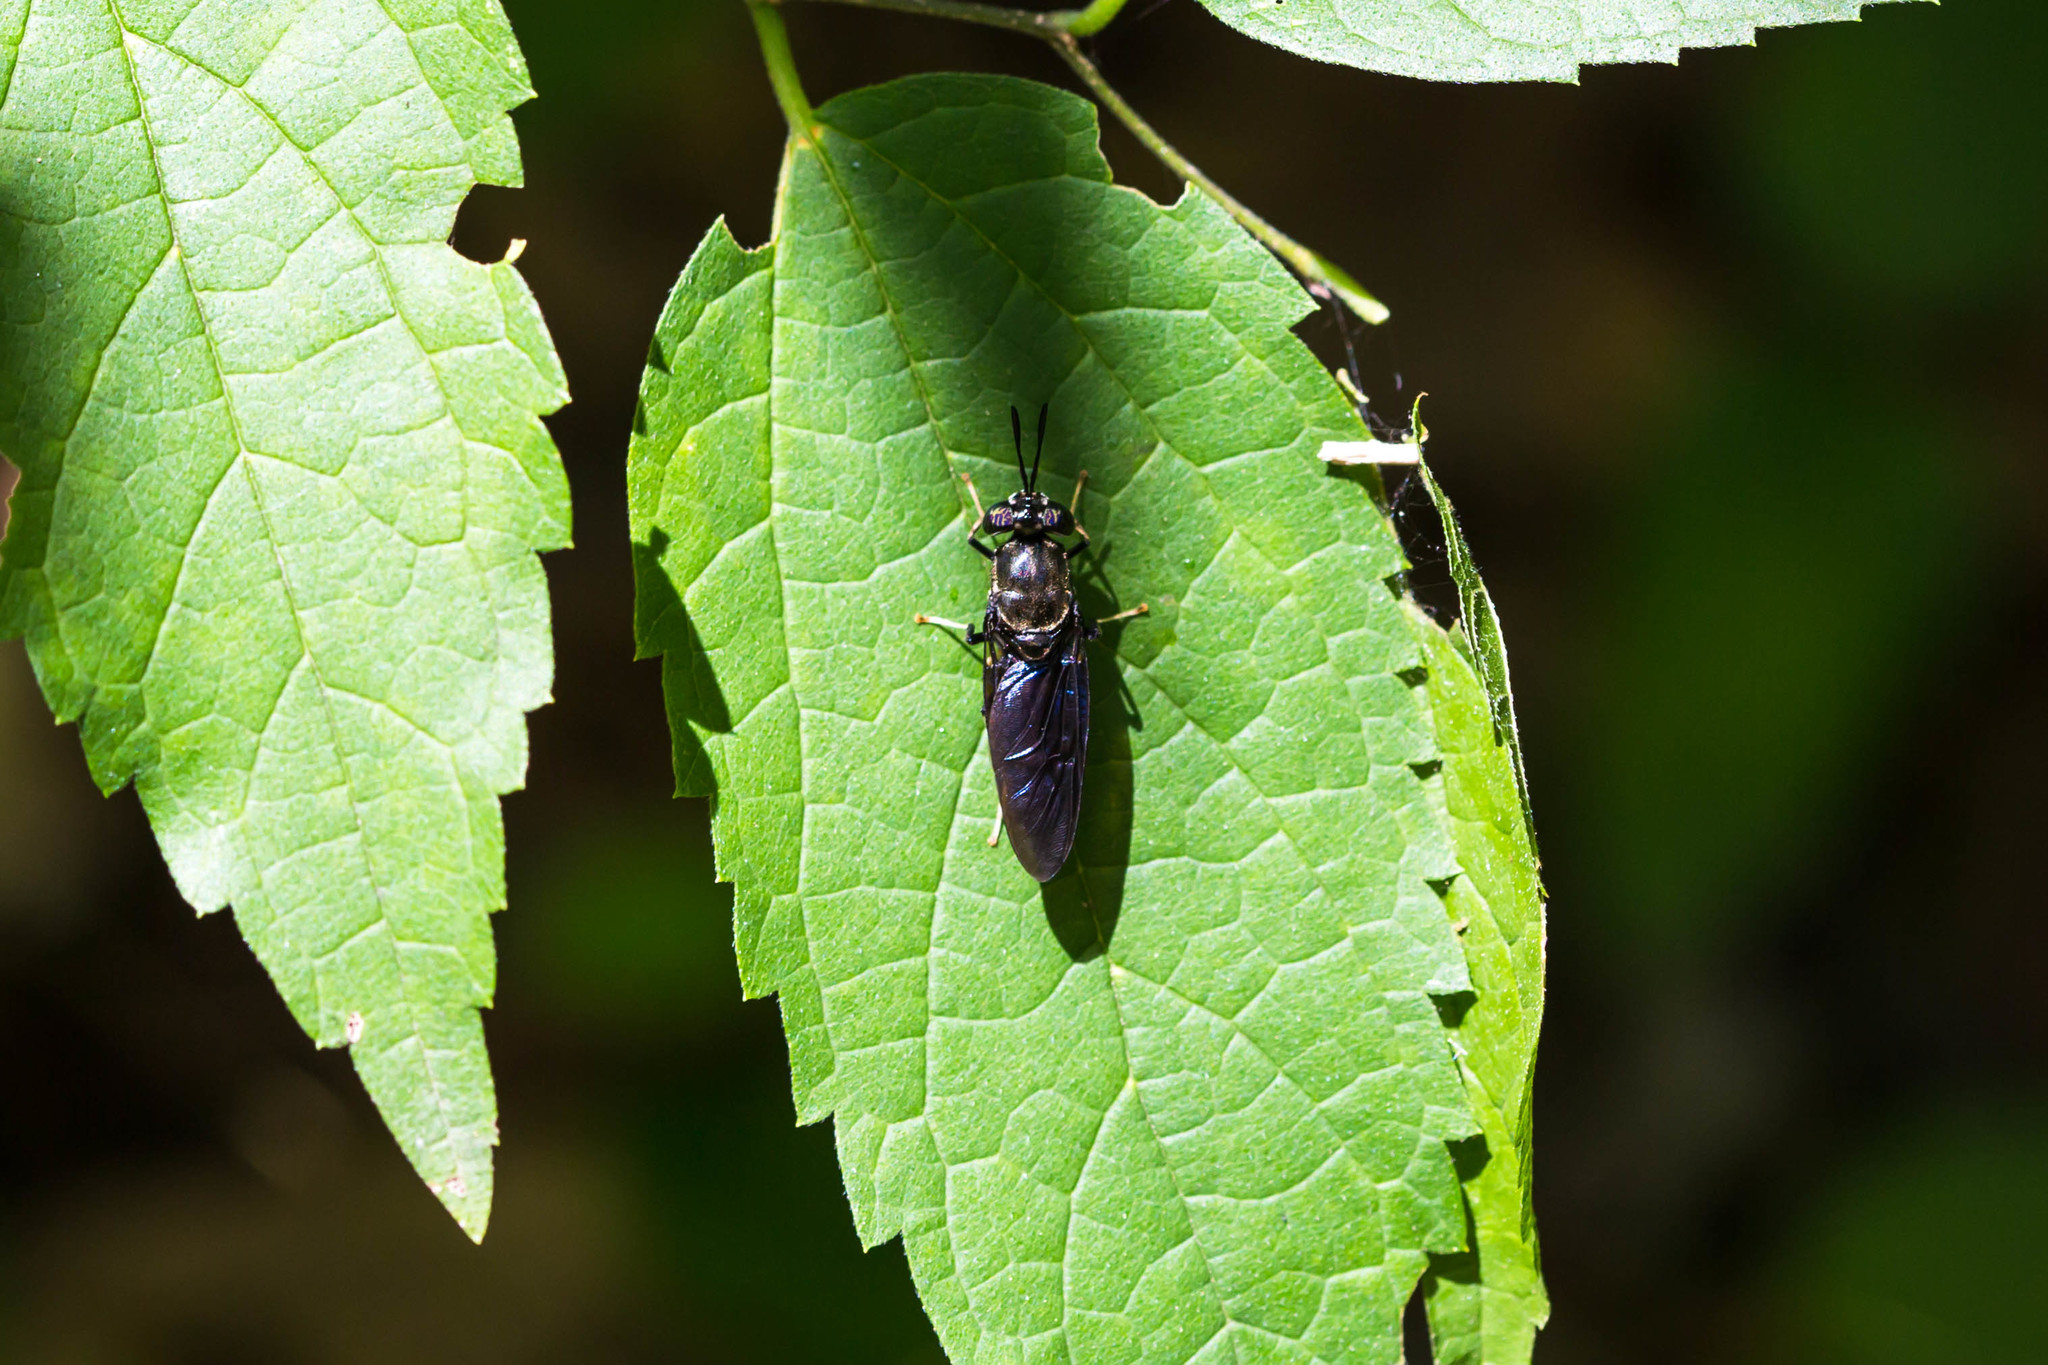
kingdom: Animalia
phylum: Arthropoda
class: Insecta
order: Diptera
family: Stratiomyidae
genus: Hermetia
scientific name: Hermetia illucens
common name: Black soldier fly
